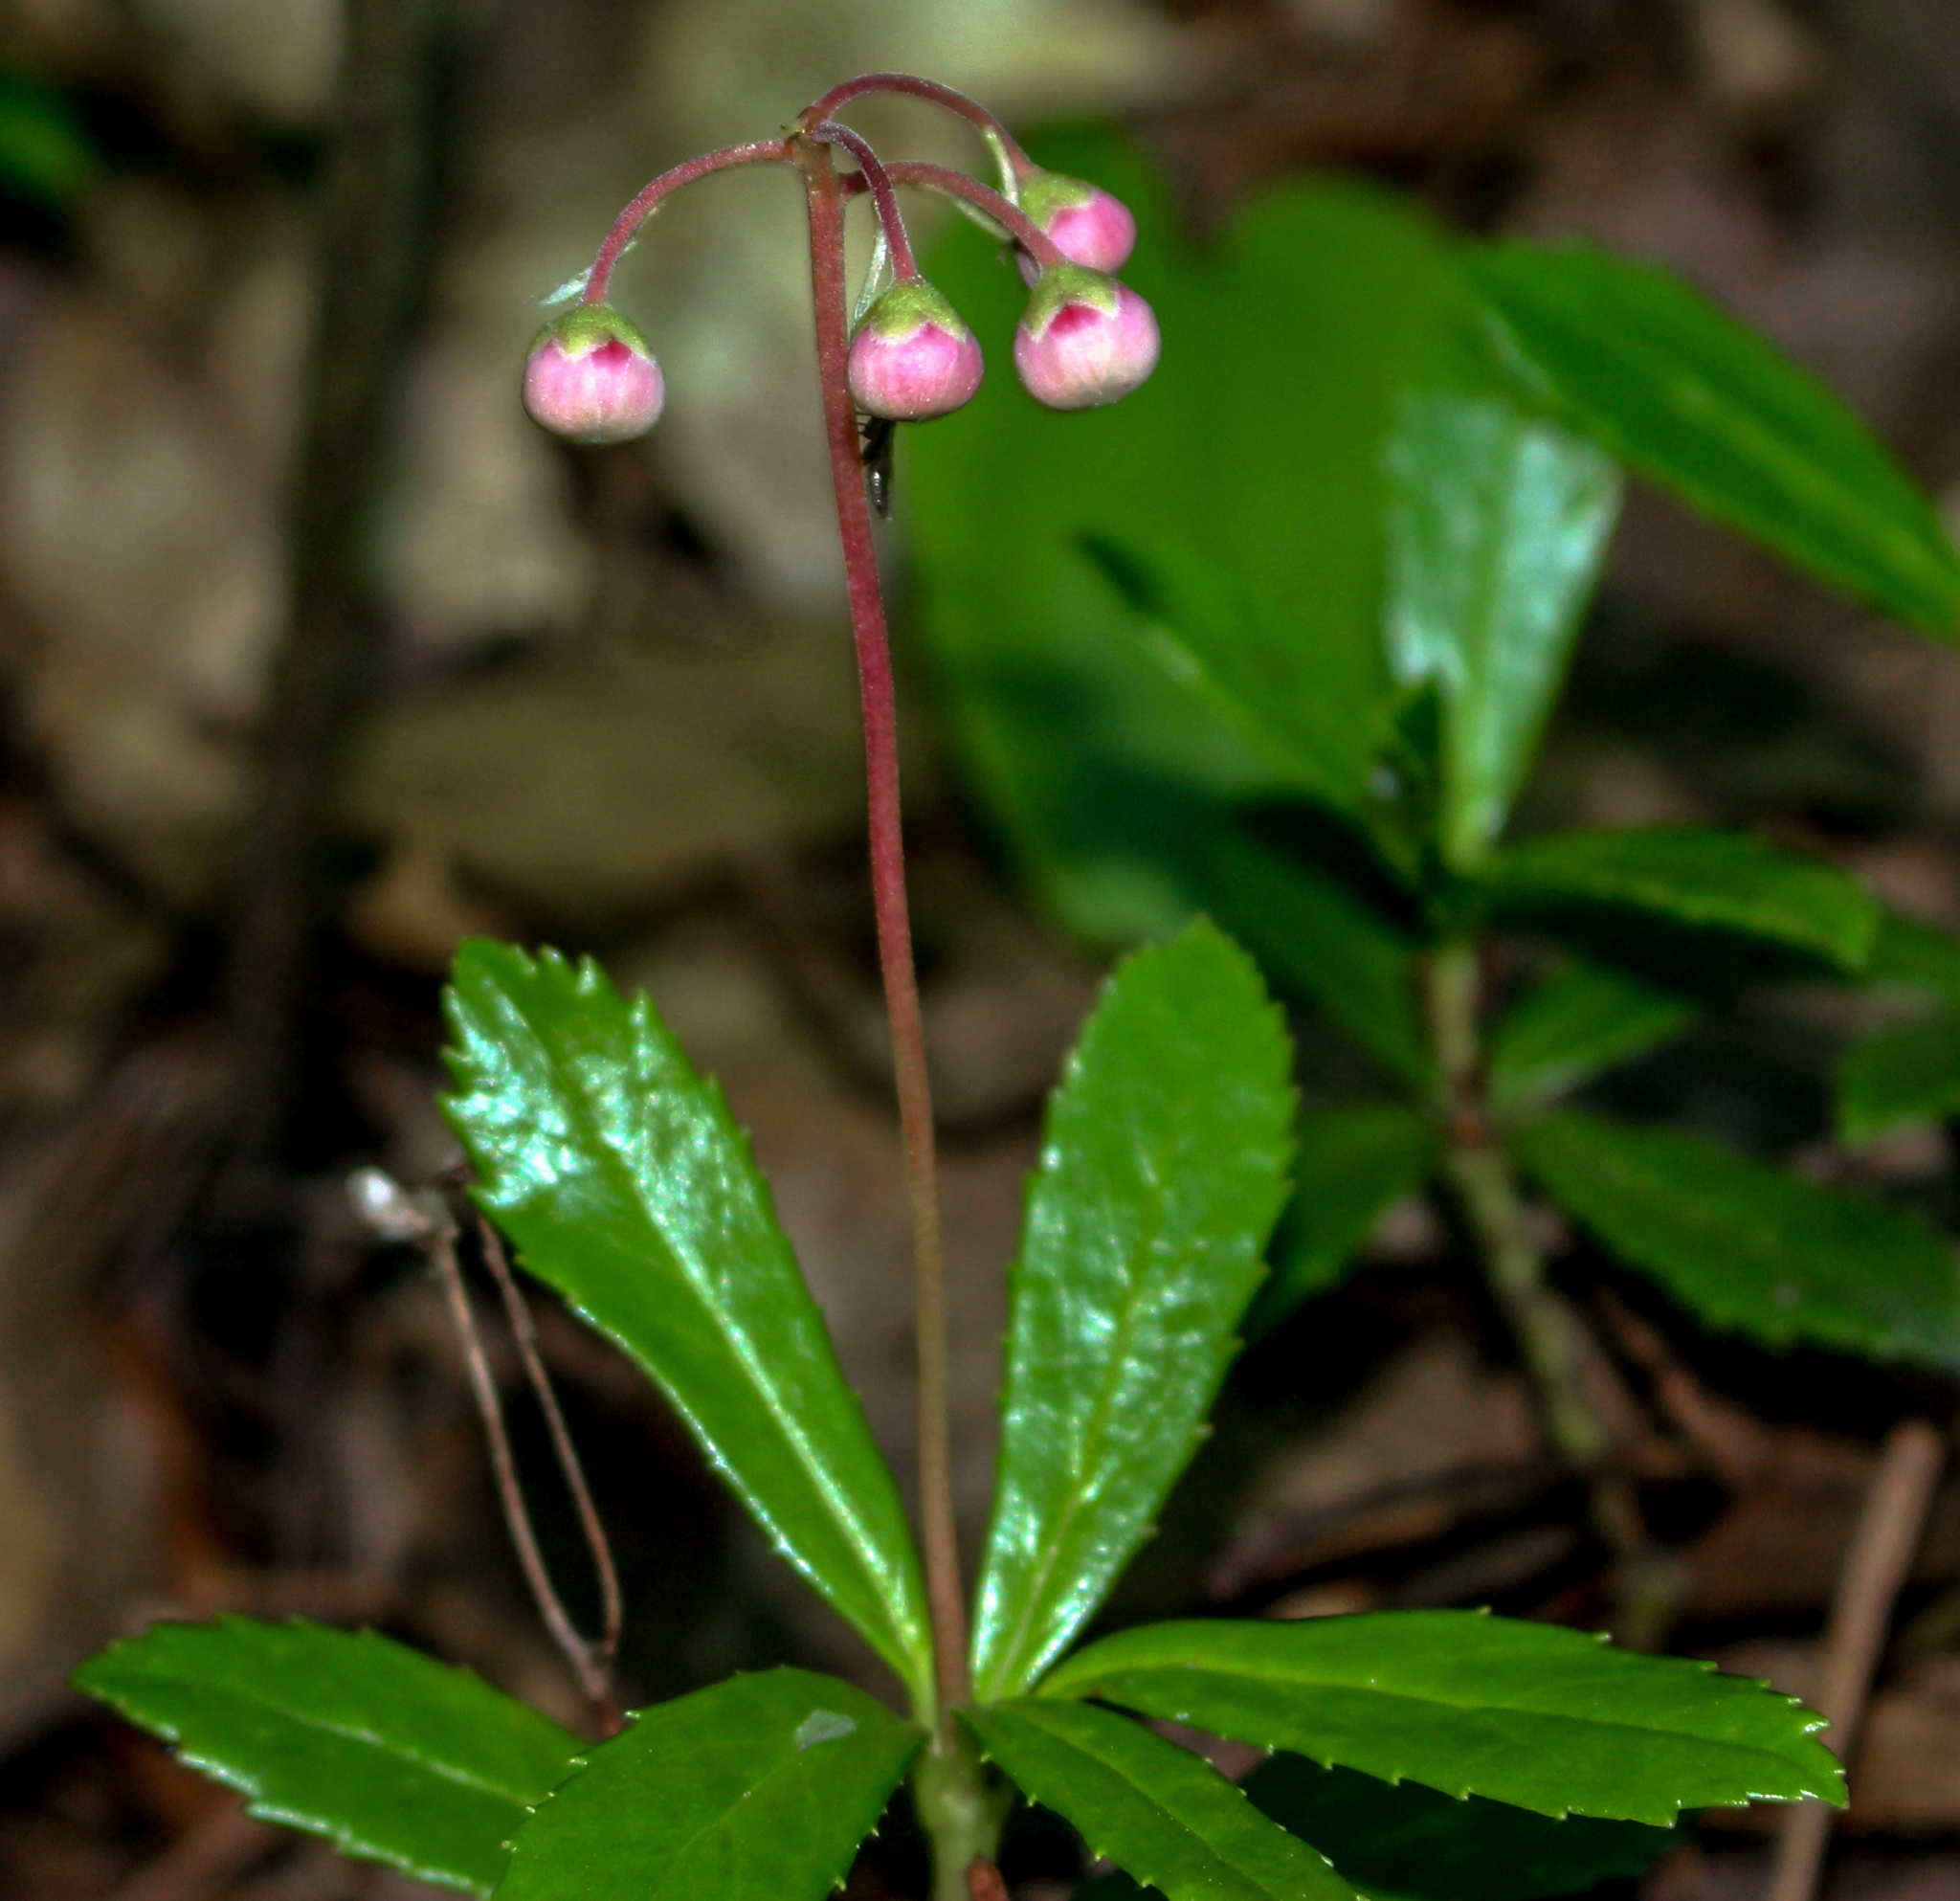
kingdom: Plantae
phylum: Tracheophyta
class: Magnoliopsida
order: Ericales
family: Ericaceae
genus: Chimaphila
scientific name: Chimaphila umbellata
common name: Pipsissewa
